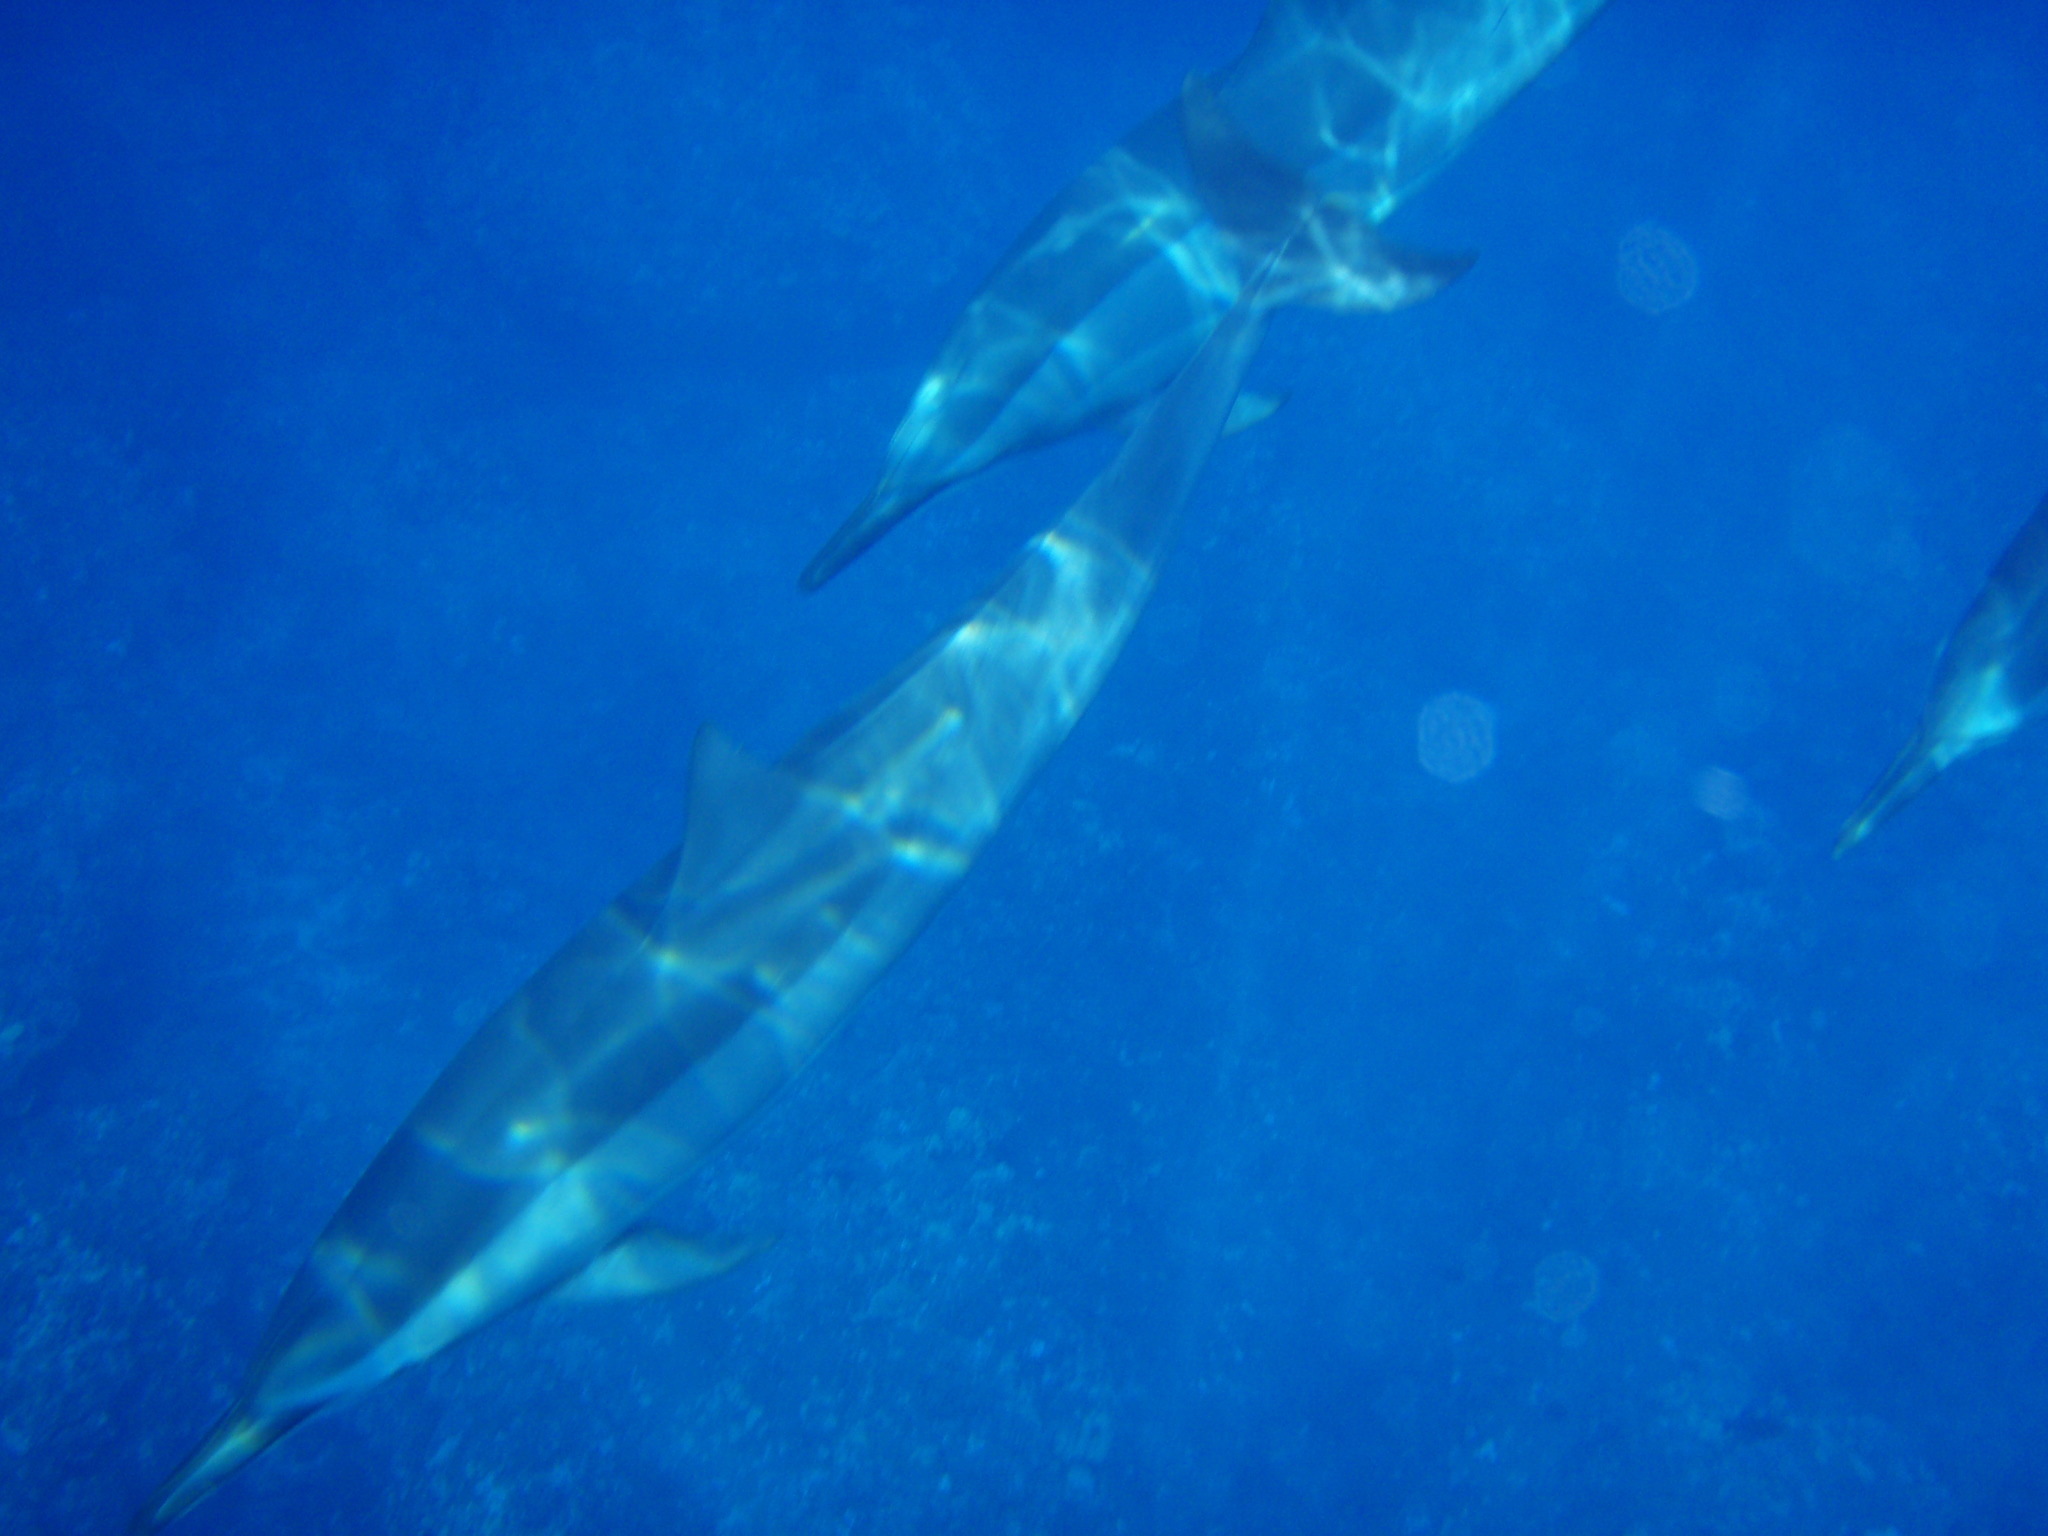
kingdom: Animalia
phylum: Chordata
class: Mammalia
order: Cetacea
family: Delphinidae
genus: Stenella
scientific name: Stenella longirostris
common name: Spinner dolphin
